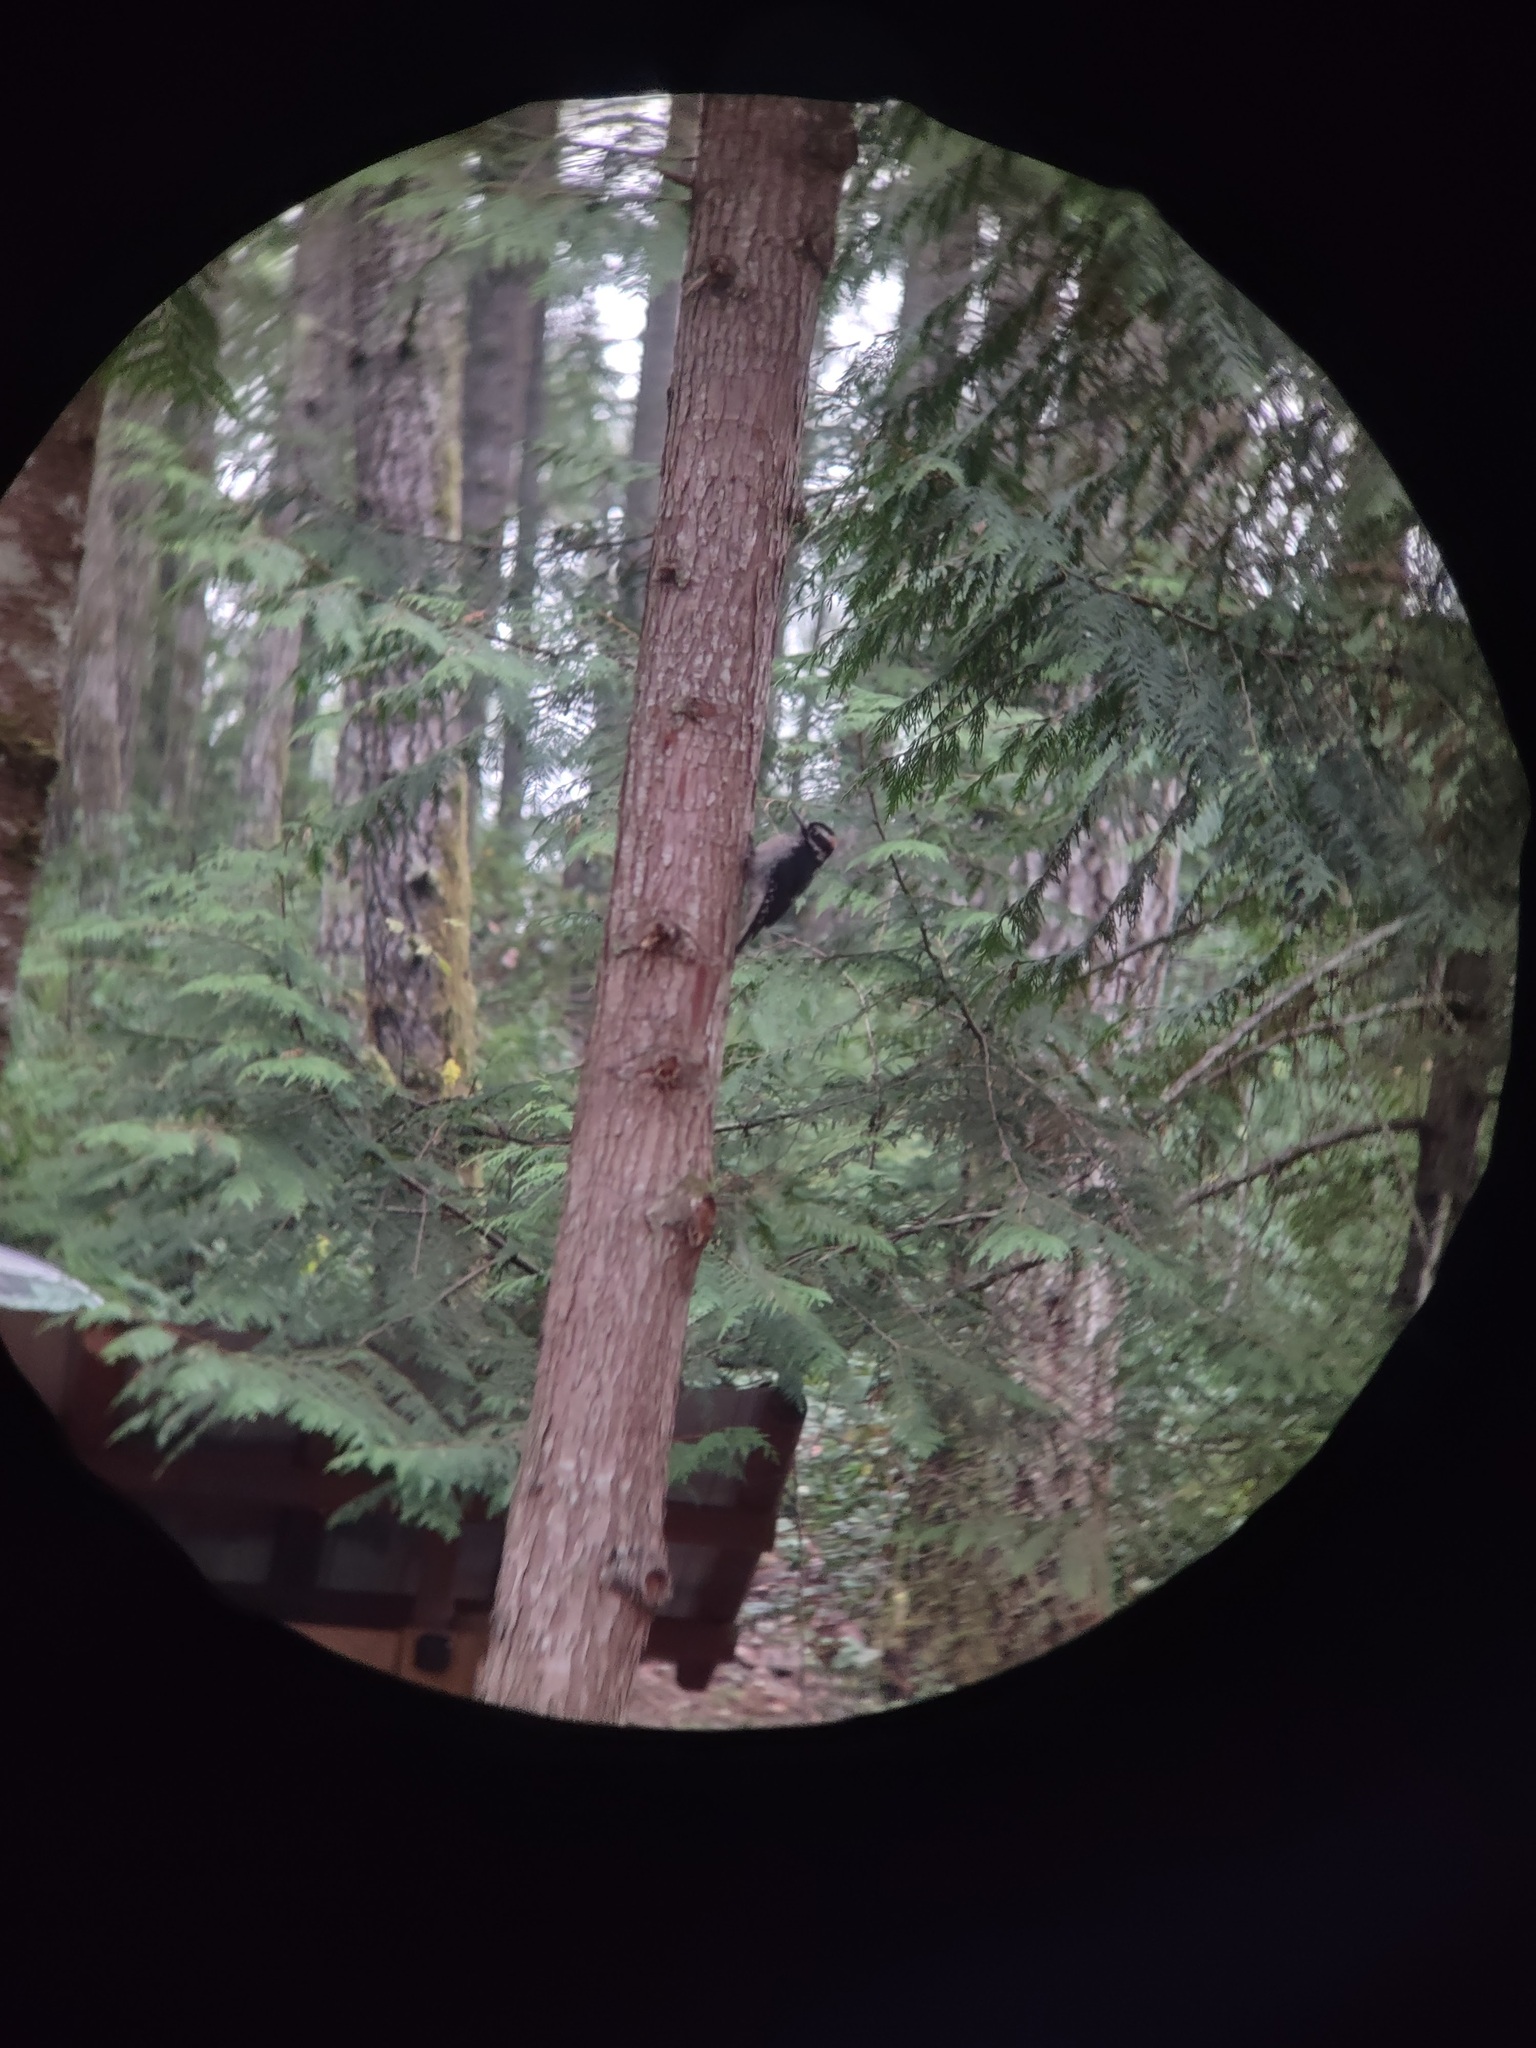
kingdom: Animalia
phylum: Chordata
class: Aves
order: Piciformes
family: Picidae
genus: Leuconotopicus
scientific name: Leuconotopicus villosus
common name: Hairy woodpecker
